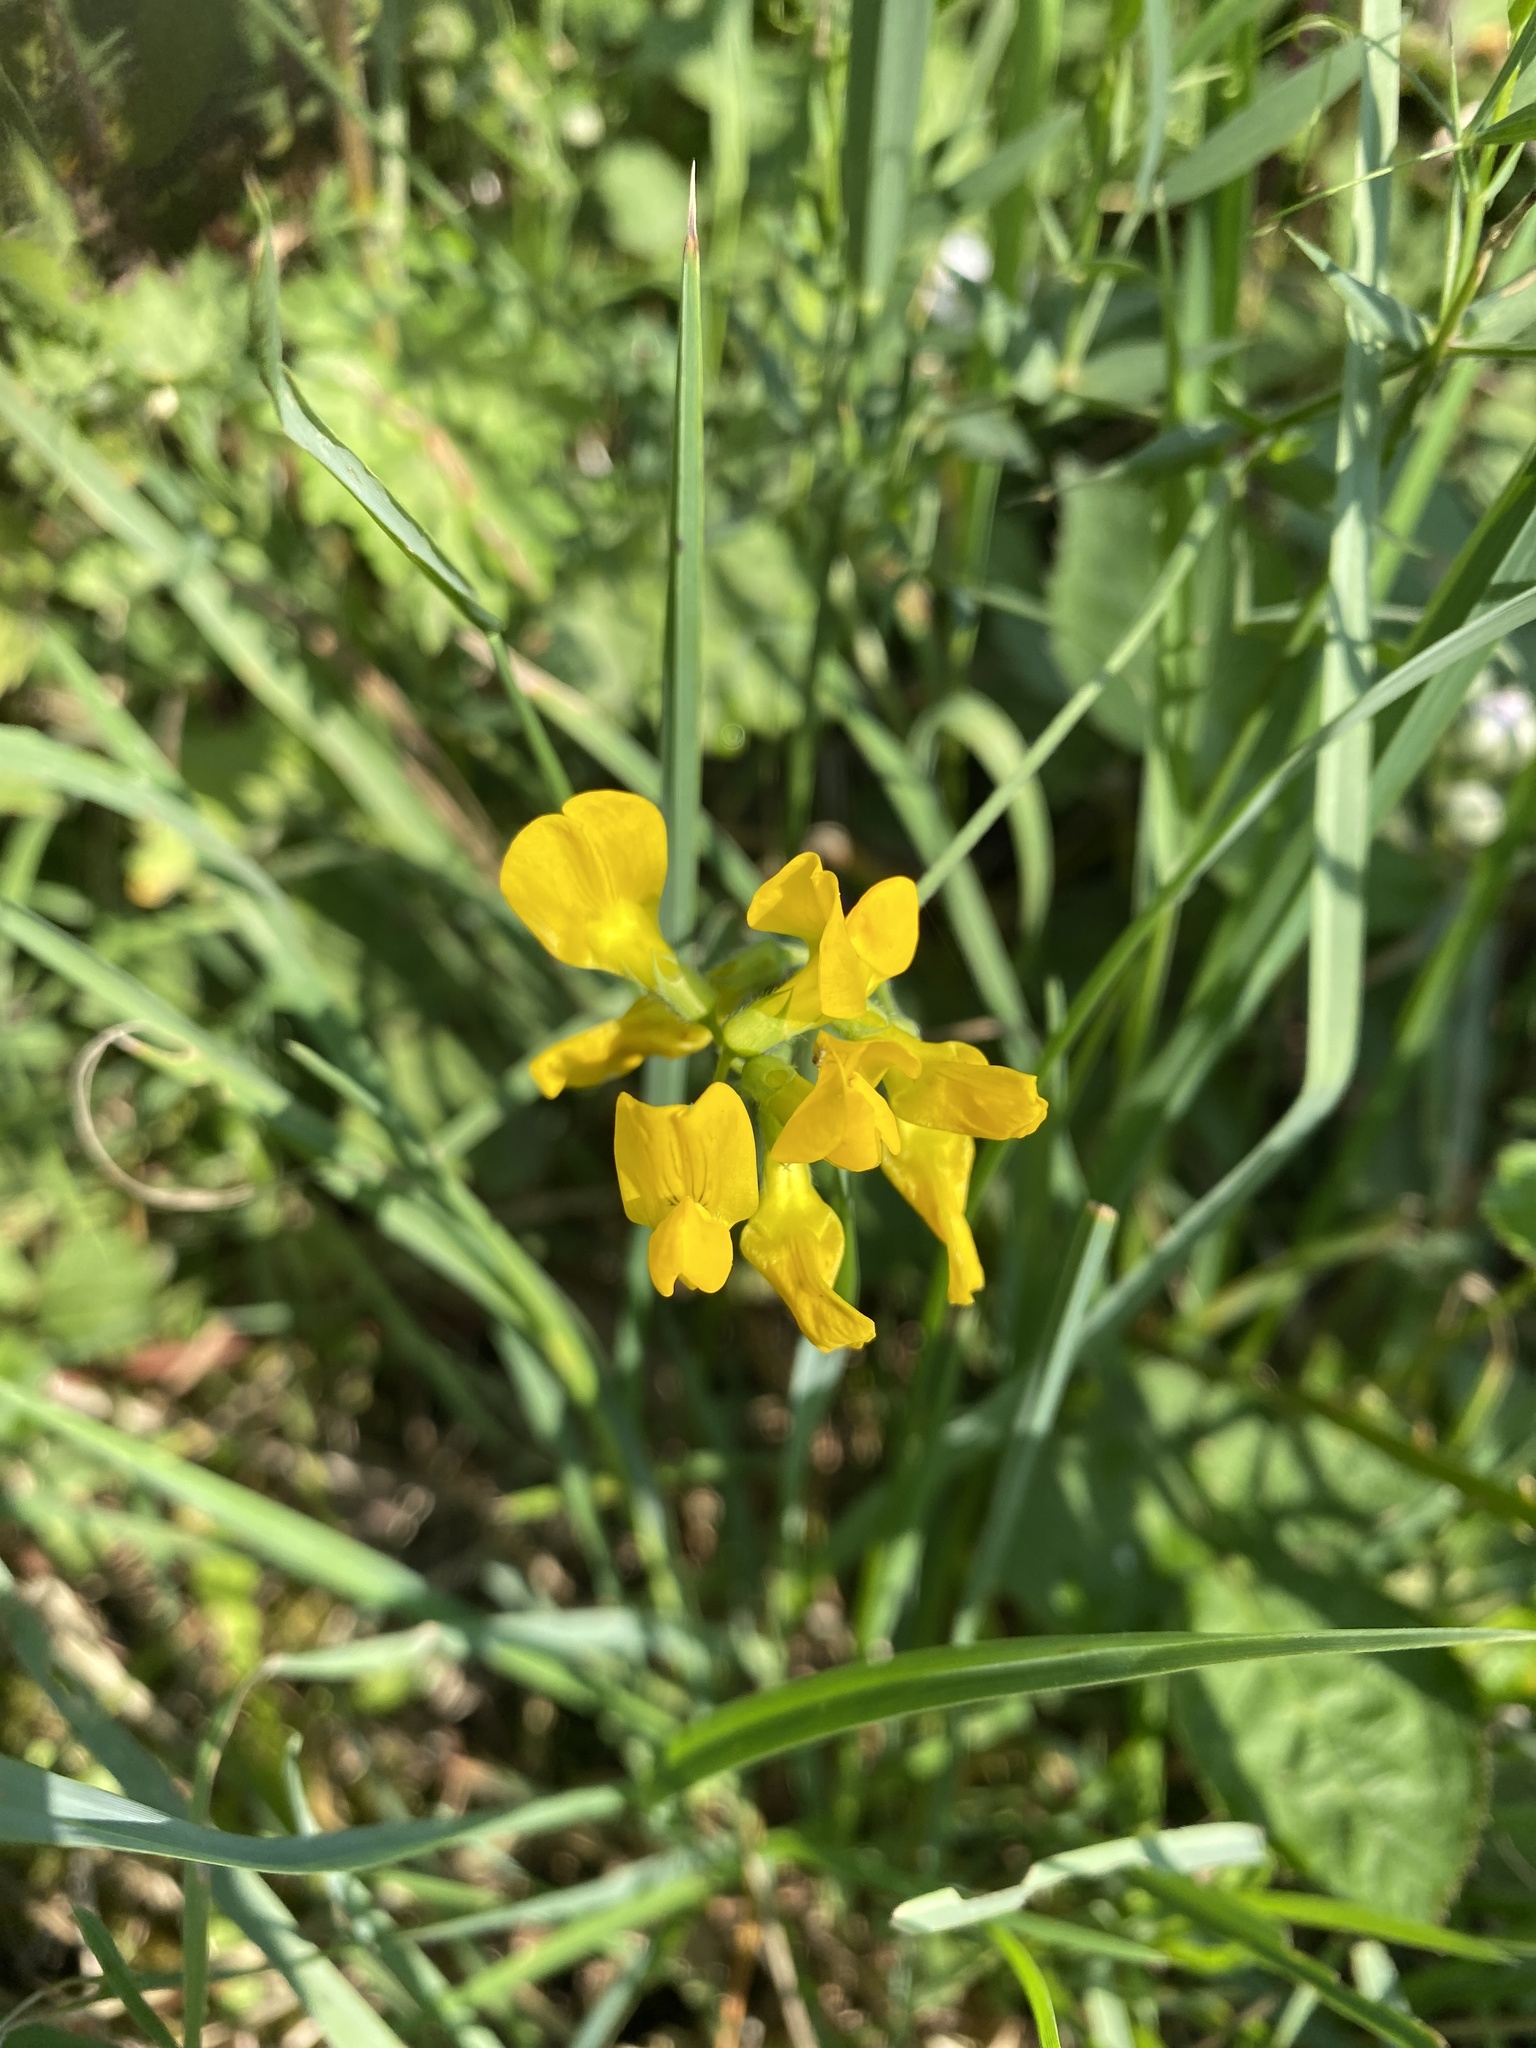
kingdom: Plantae
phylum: Tracheophyta
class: Magnoliopsida
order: Fabales
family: Fabaceae
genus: Lathyrus
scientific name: Lathyrus pratensis
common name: Meadow vetchling
